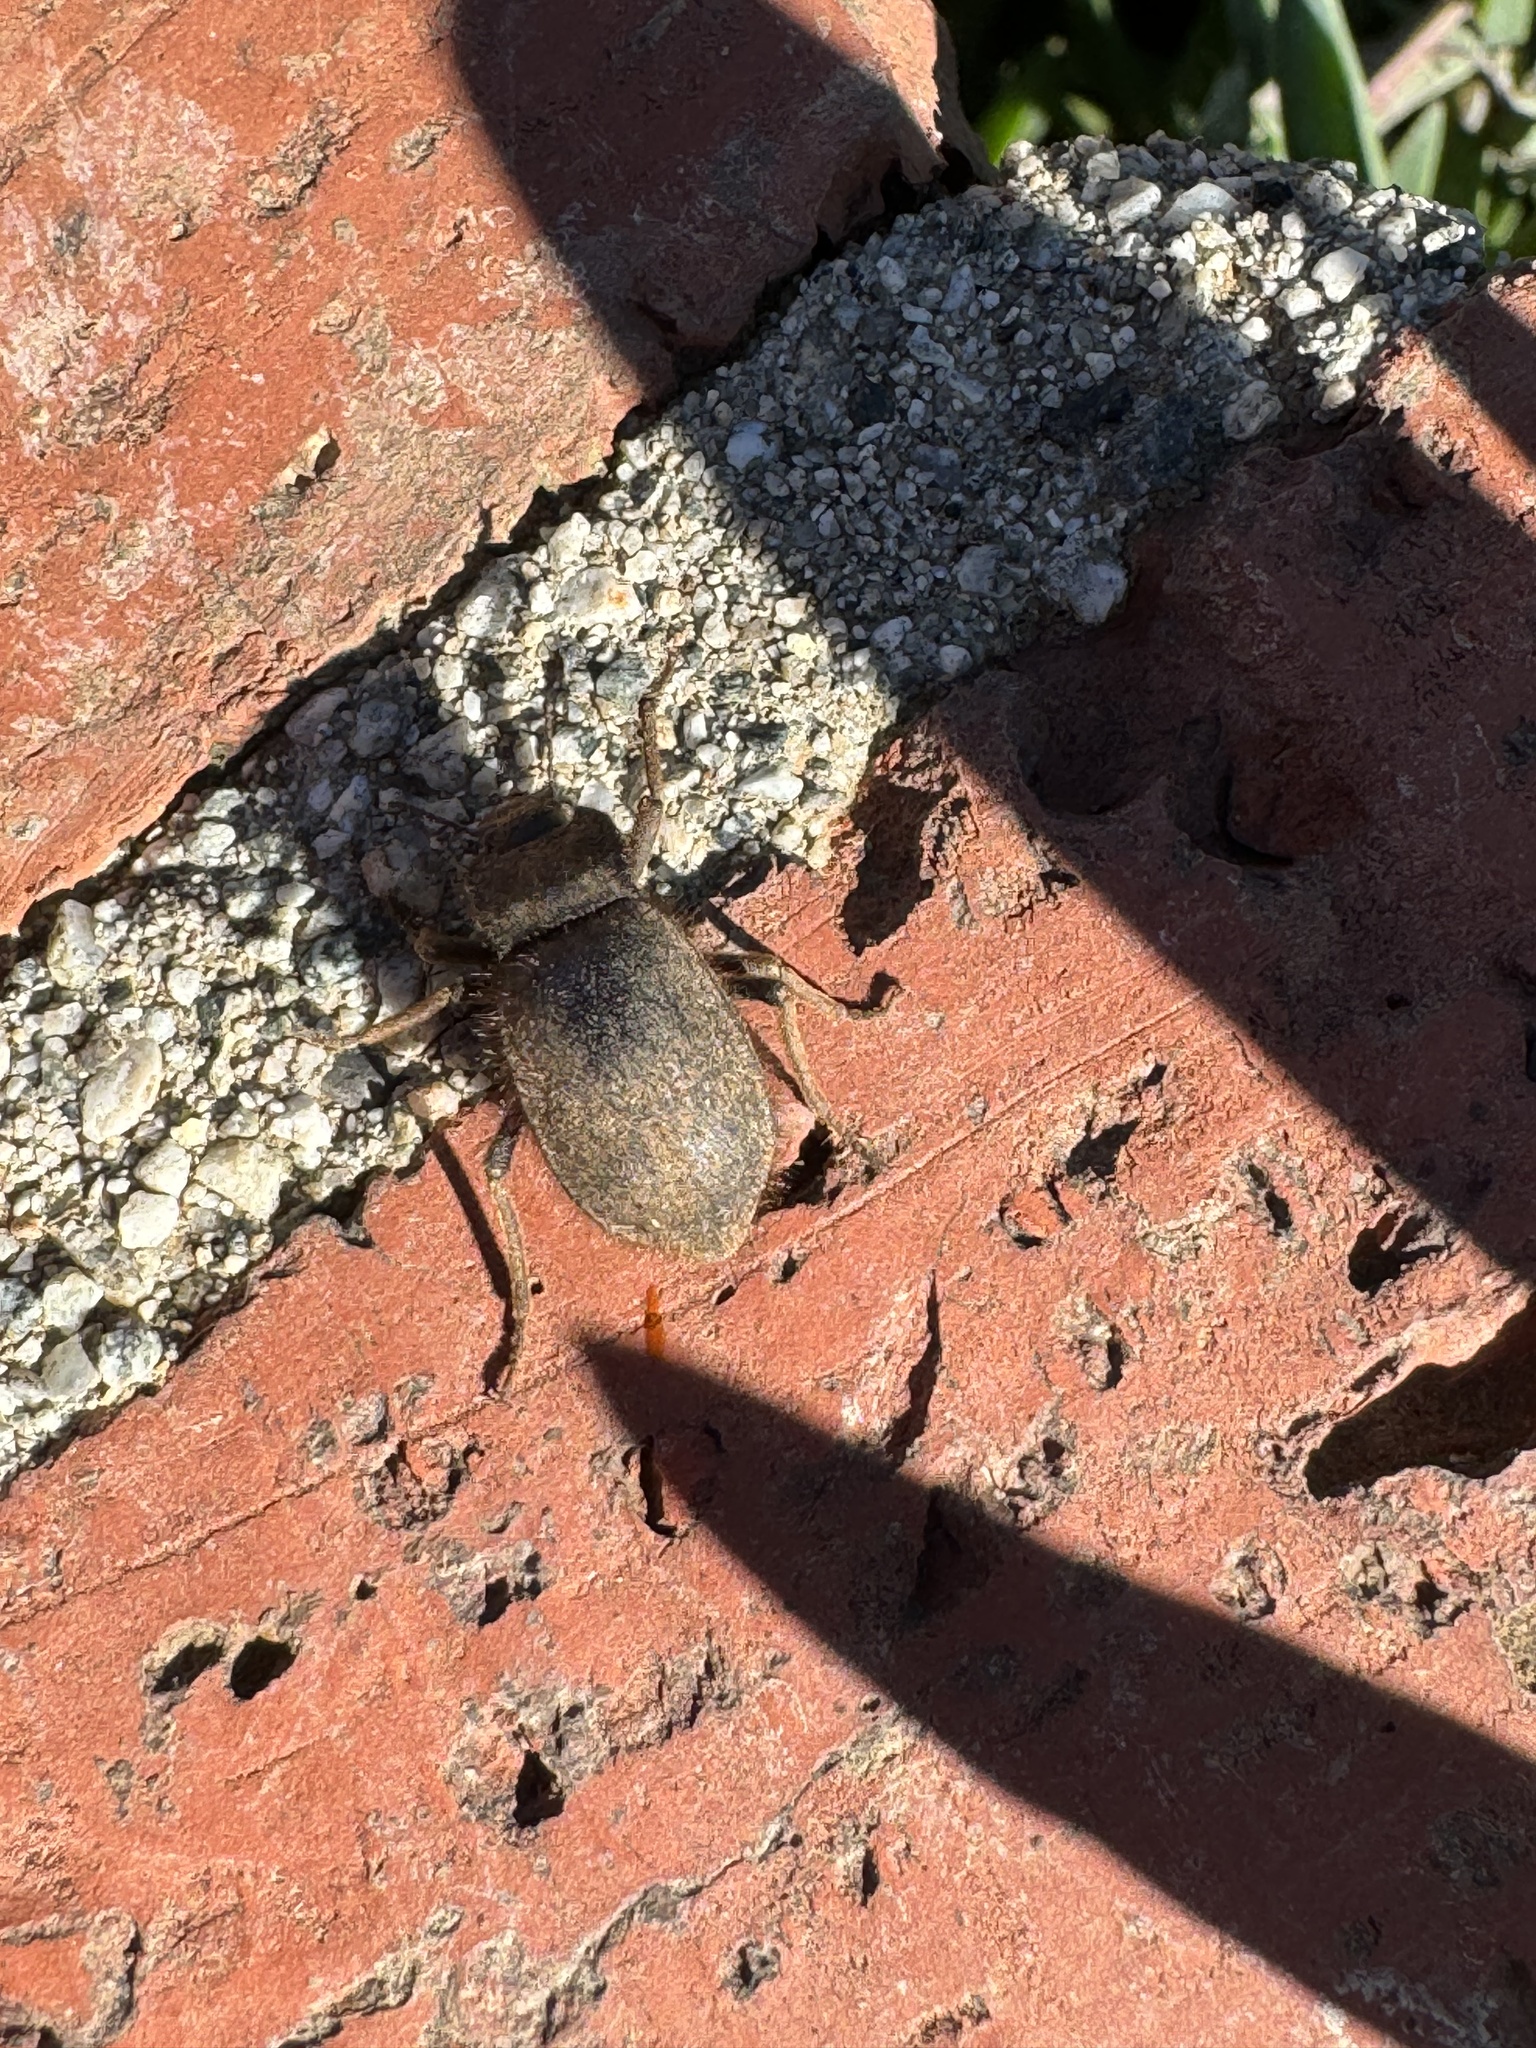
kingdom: Animalia
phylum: Arthropoda
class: Insecta
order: Coleoptera
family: Tenebrionidae
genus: Stenomorpha
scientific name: Stenomorpha muricatula
